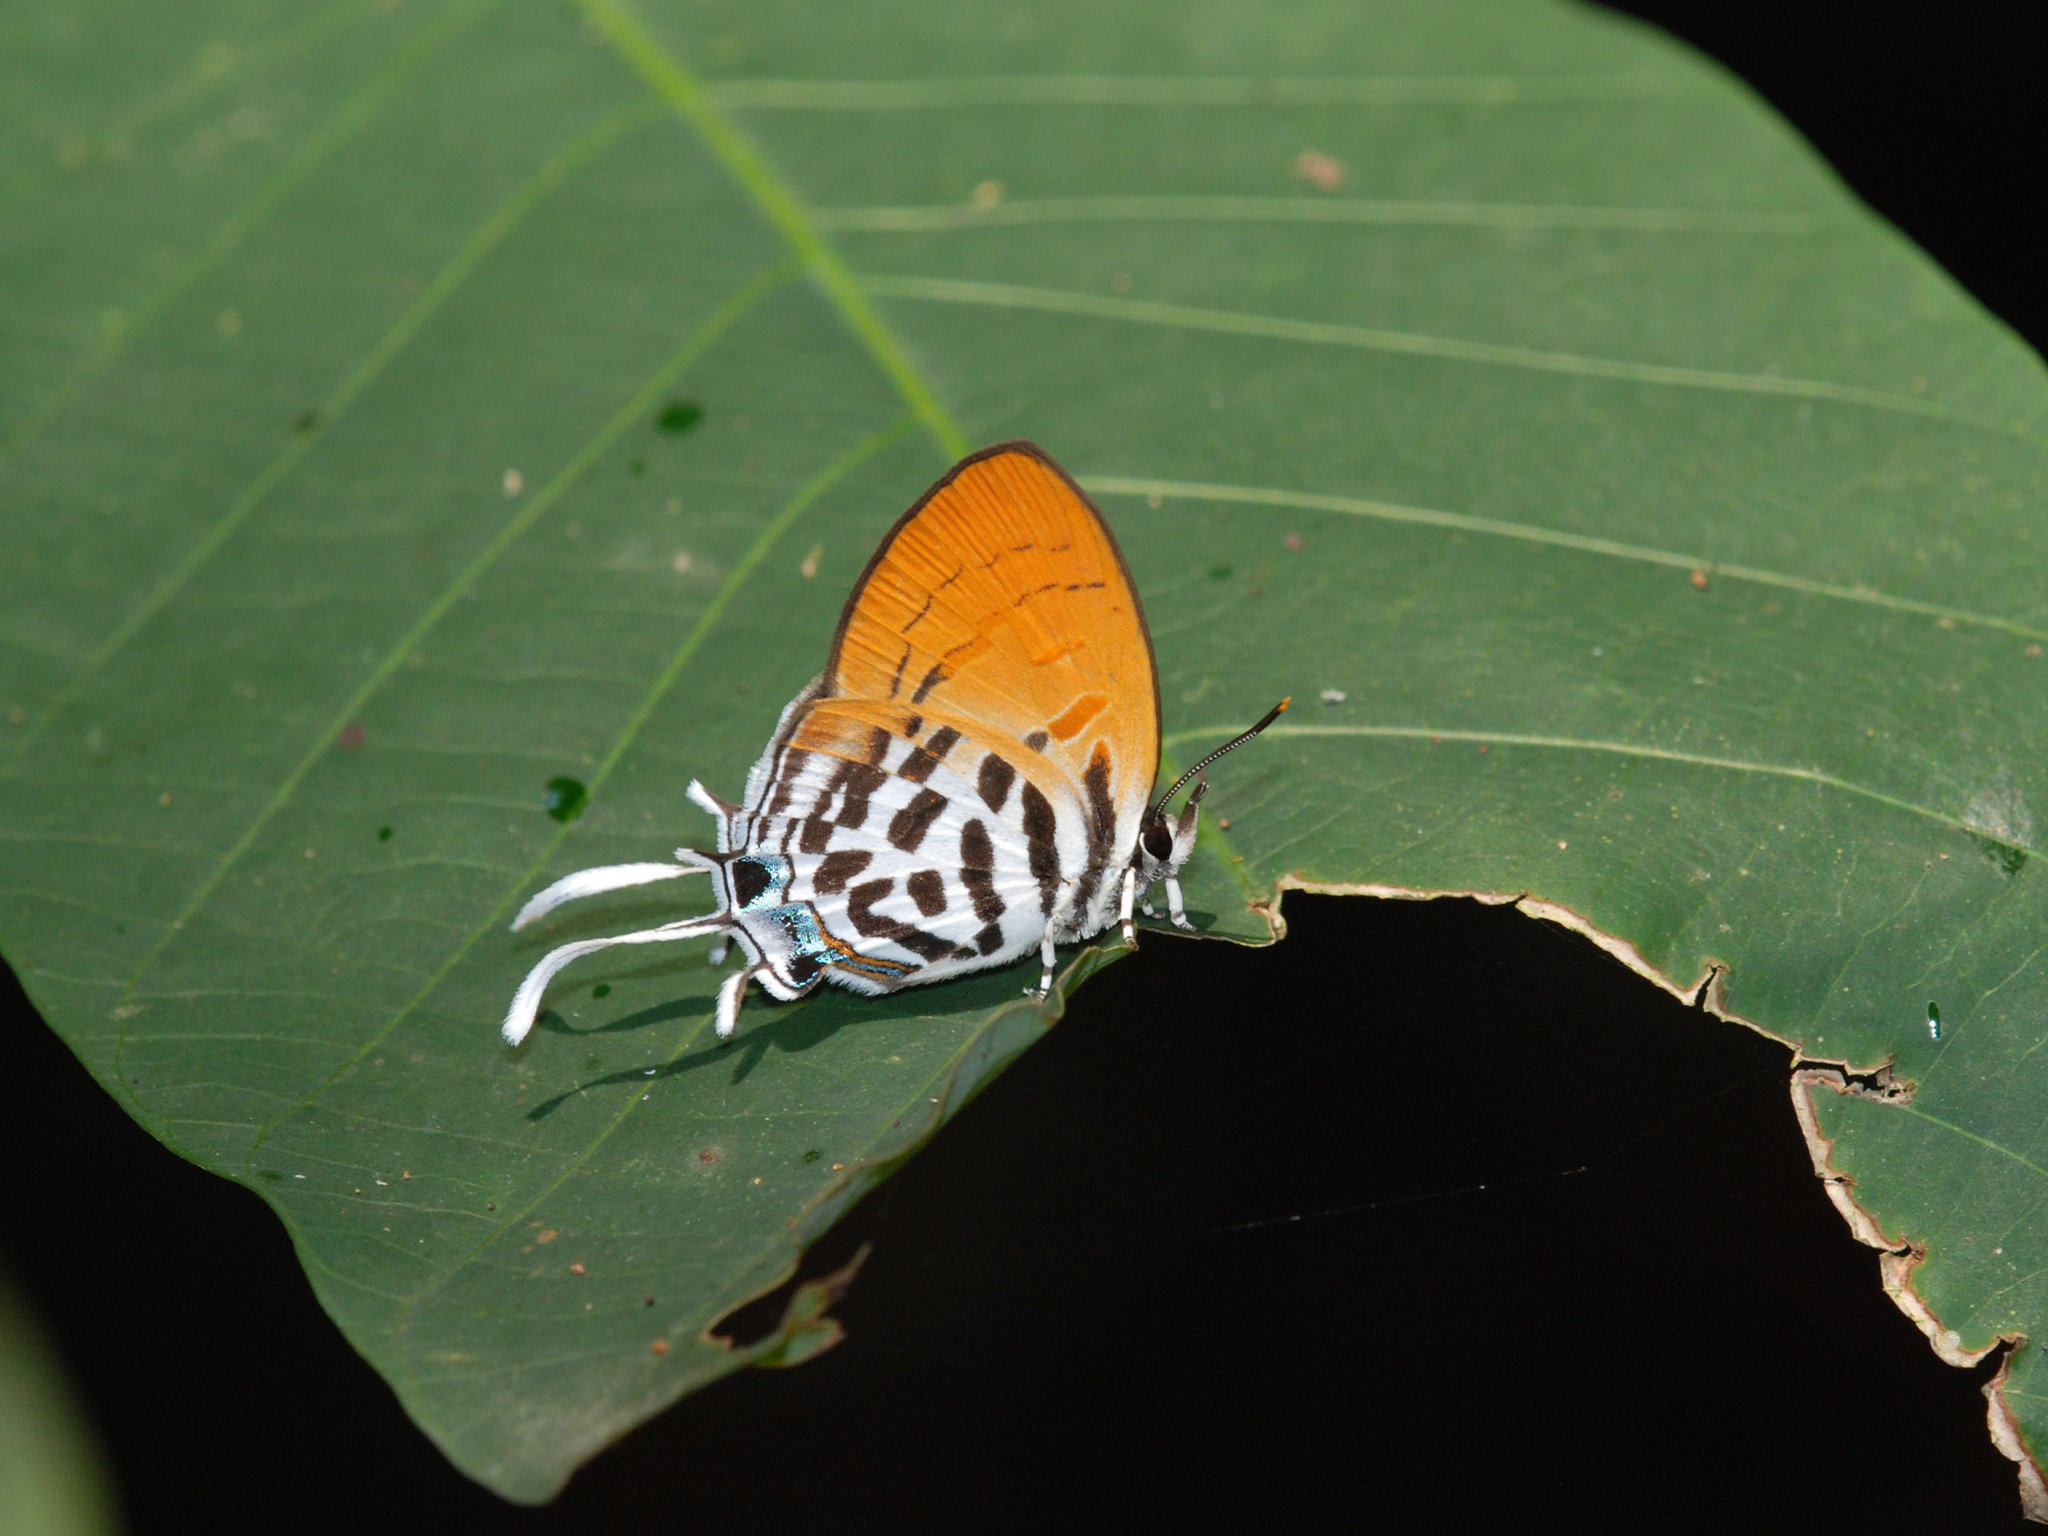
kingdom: Animalia
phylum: Arthropoda
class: Insecta
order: Lepidoptera
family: Lycaenidae
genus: Drupadia
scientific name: Drupadia ravindra
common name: Common posy
